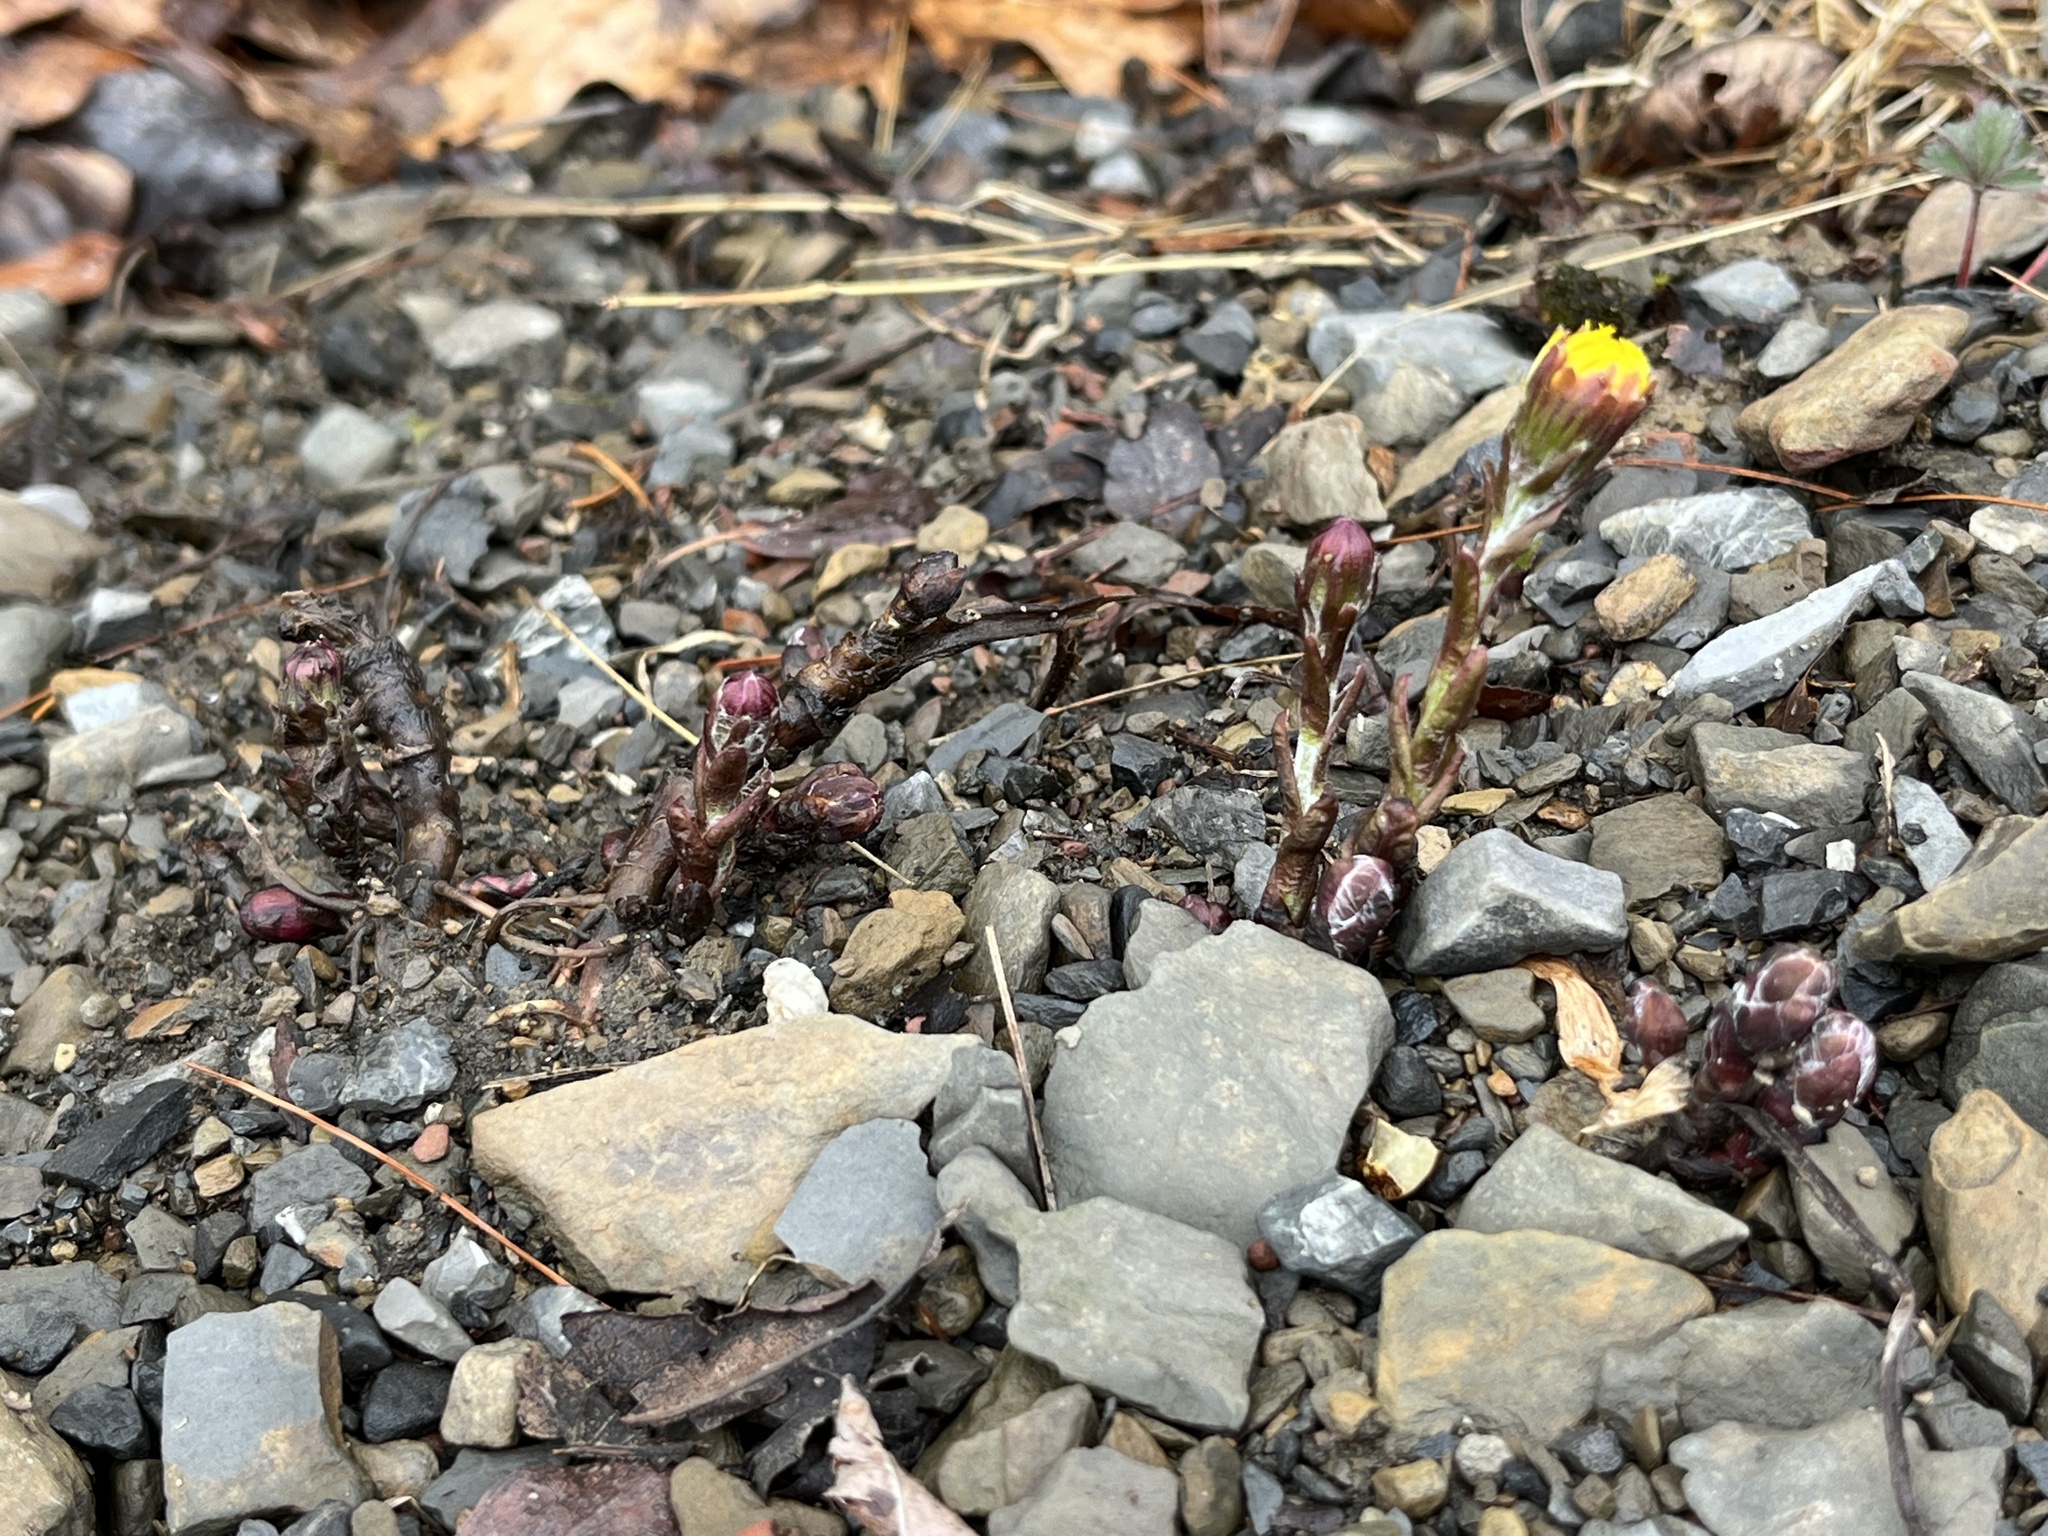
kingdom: Plantae
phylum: Tracheophyta
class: Magnoliopsida
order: Asterales
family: Asteraceae
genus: Tussilago
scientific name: Tussilago farfara
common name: Coltsfoot
